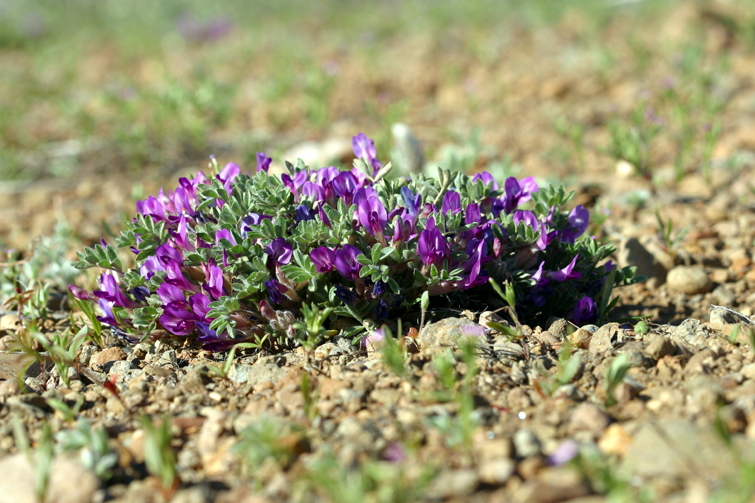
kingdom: Plantae
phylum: Tracheophyta
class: Magnoliopsida
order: Fabales
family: Fabaceae
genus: Astragalus
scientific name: Astragalus purshii
